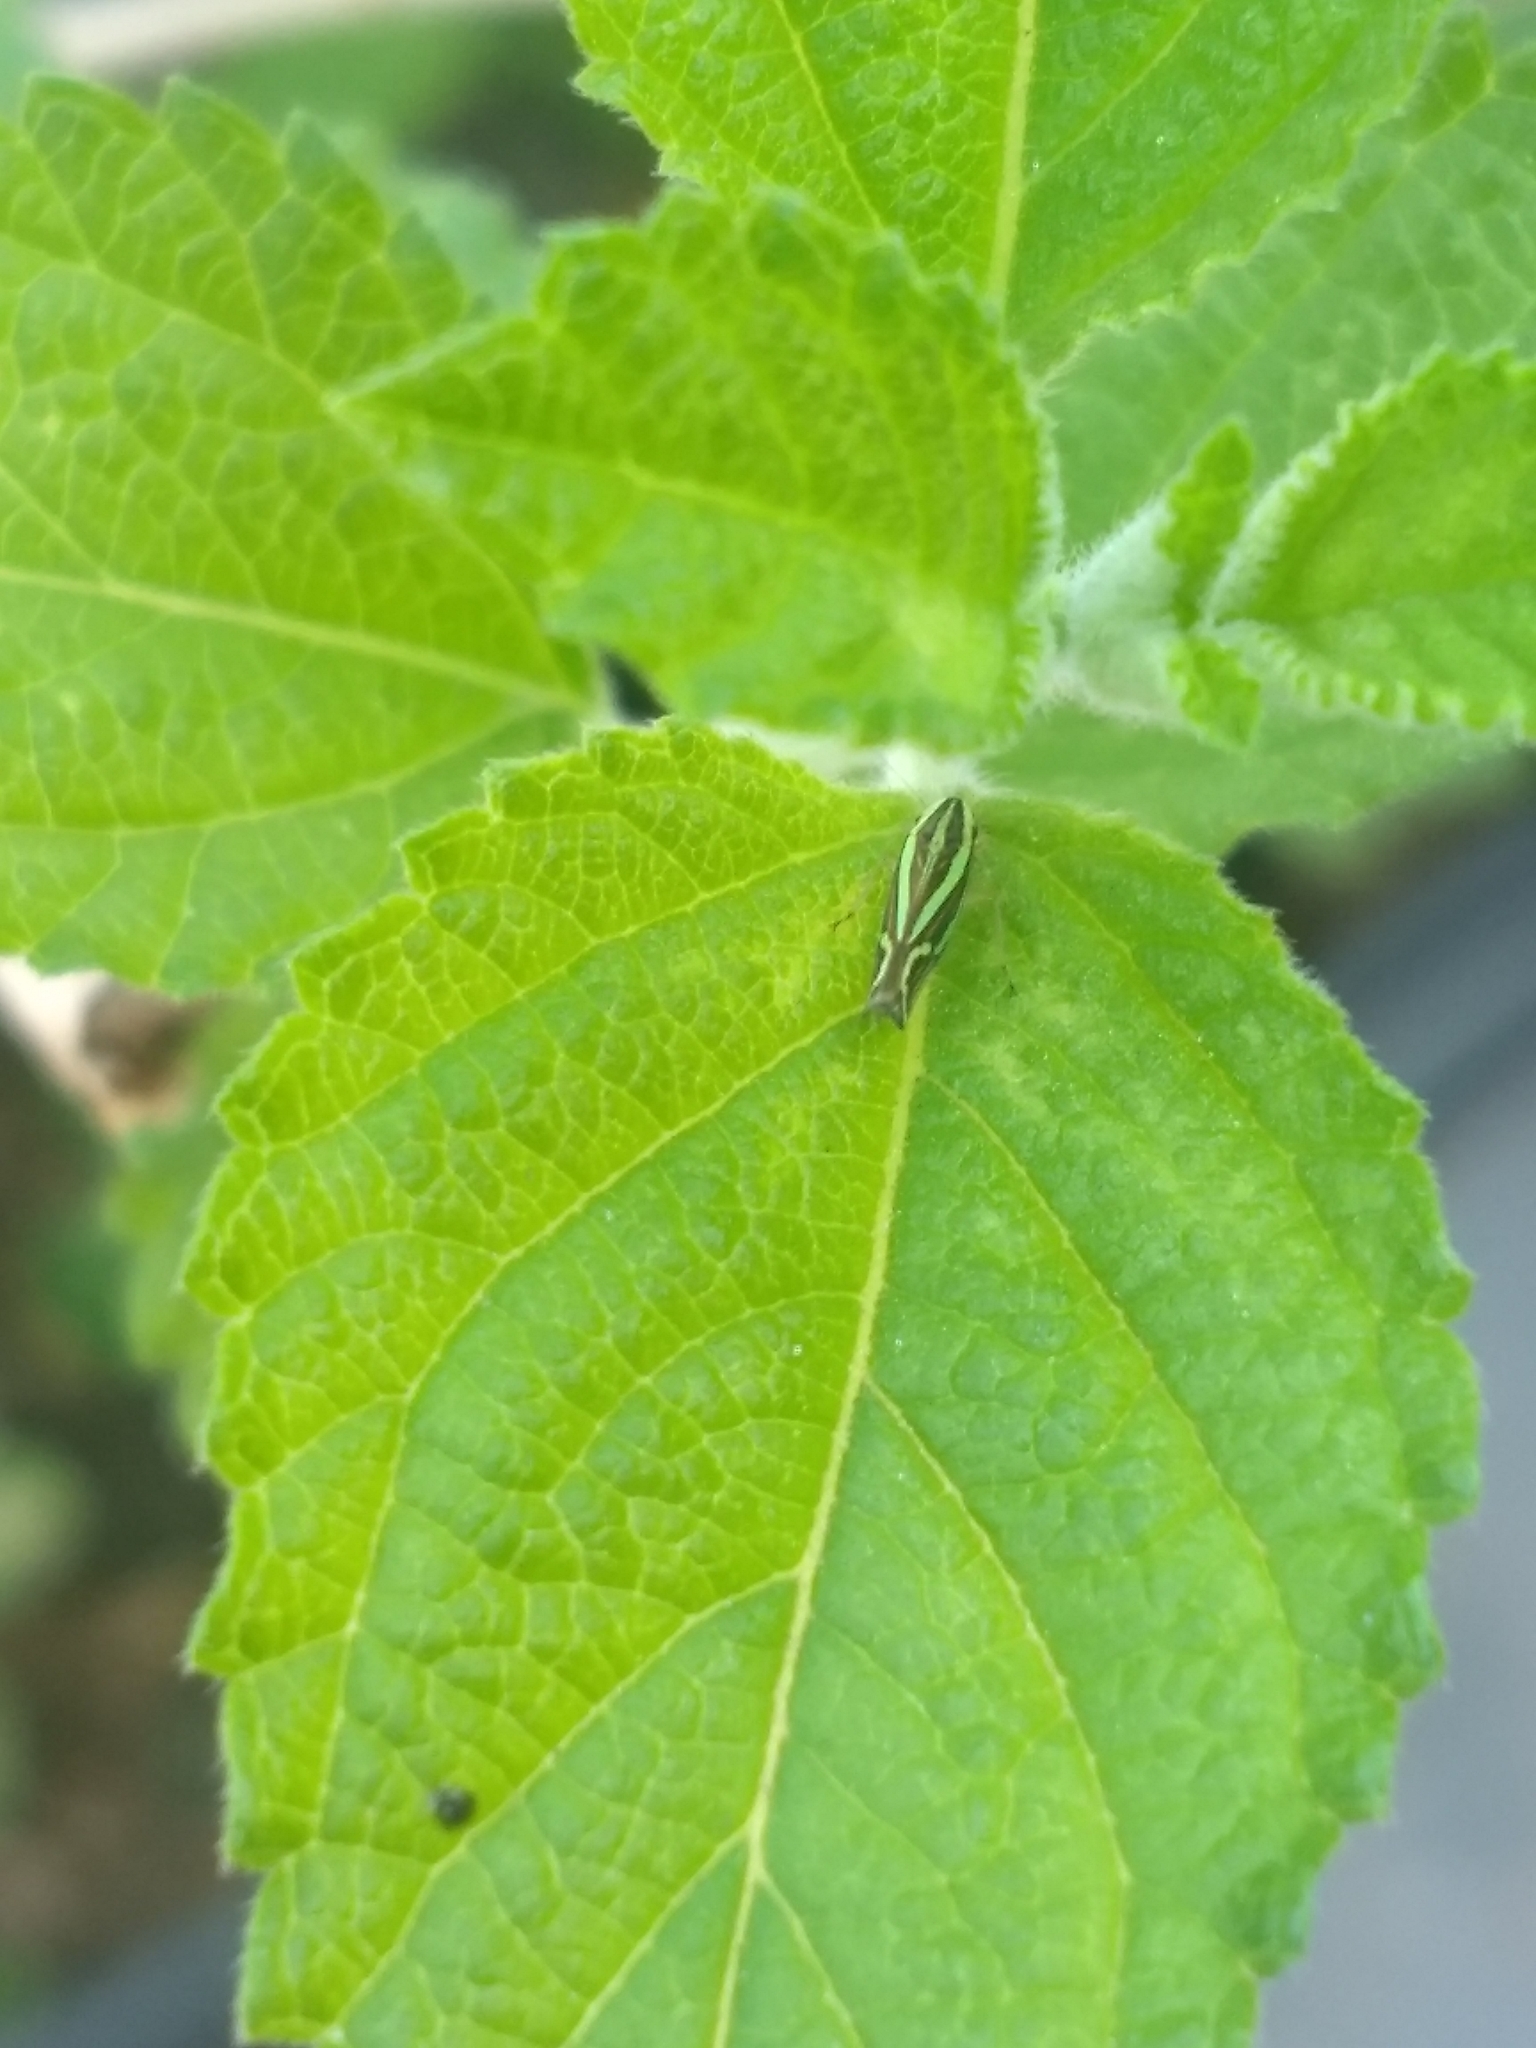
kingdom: Animalia
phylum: Arthropoda
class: Insecta
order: Hemiptera
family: Cicadellidae
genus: Sibovia
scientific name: Sibovia sagata
